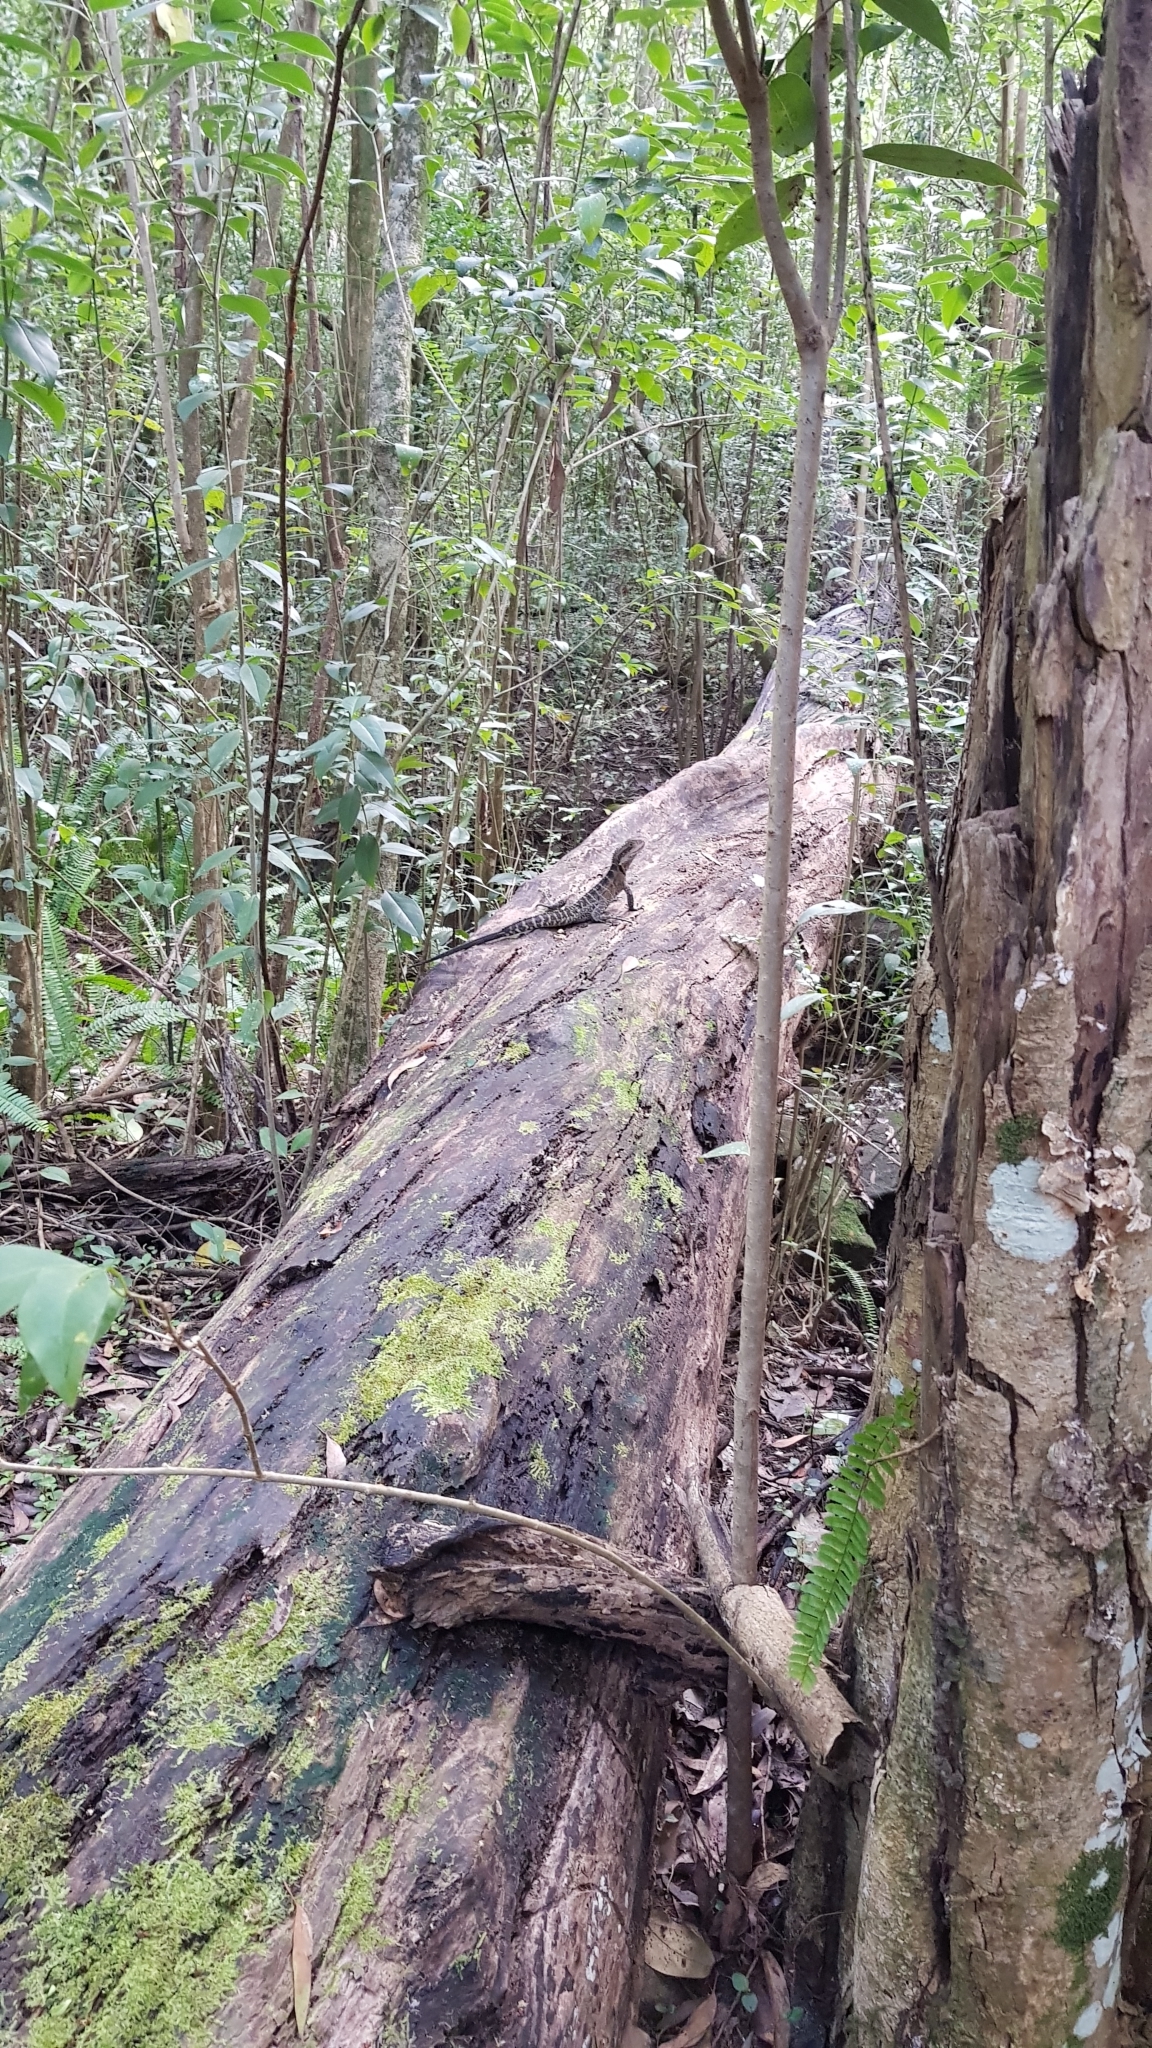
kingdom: Animalia
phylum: Chordata
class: Squamata
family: Agamidae
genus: Intellagama
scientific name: Intellagama lesueurii
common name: Eastern water dragon
